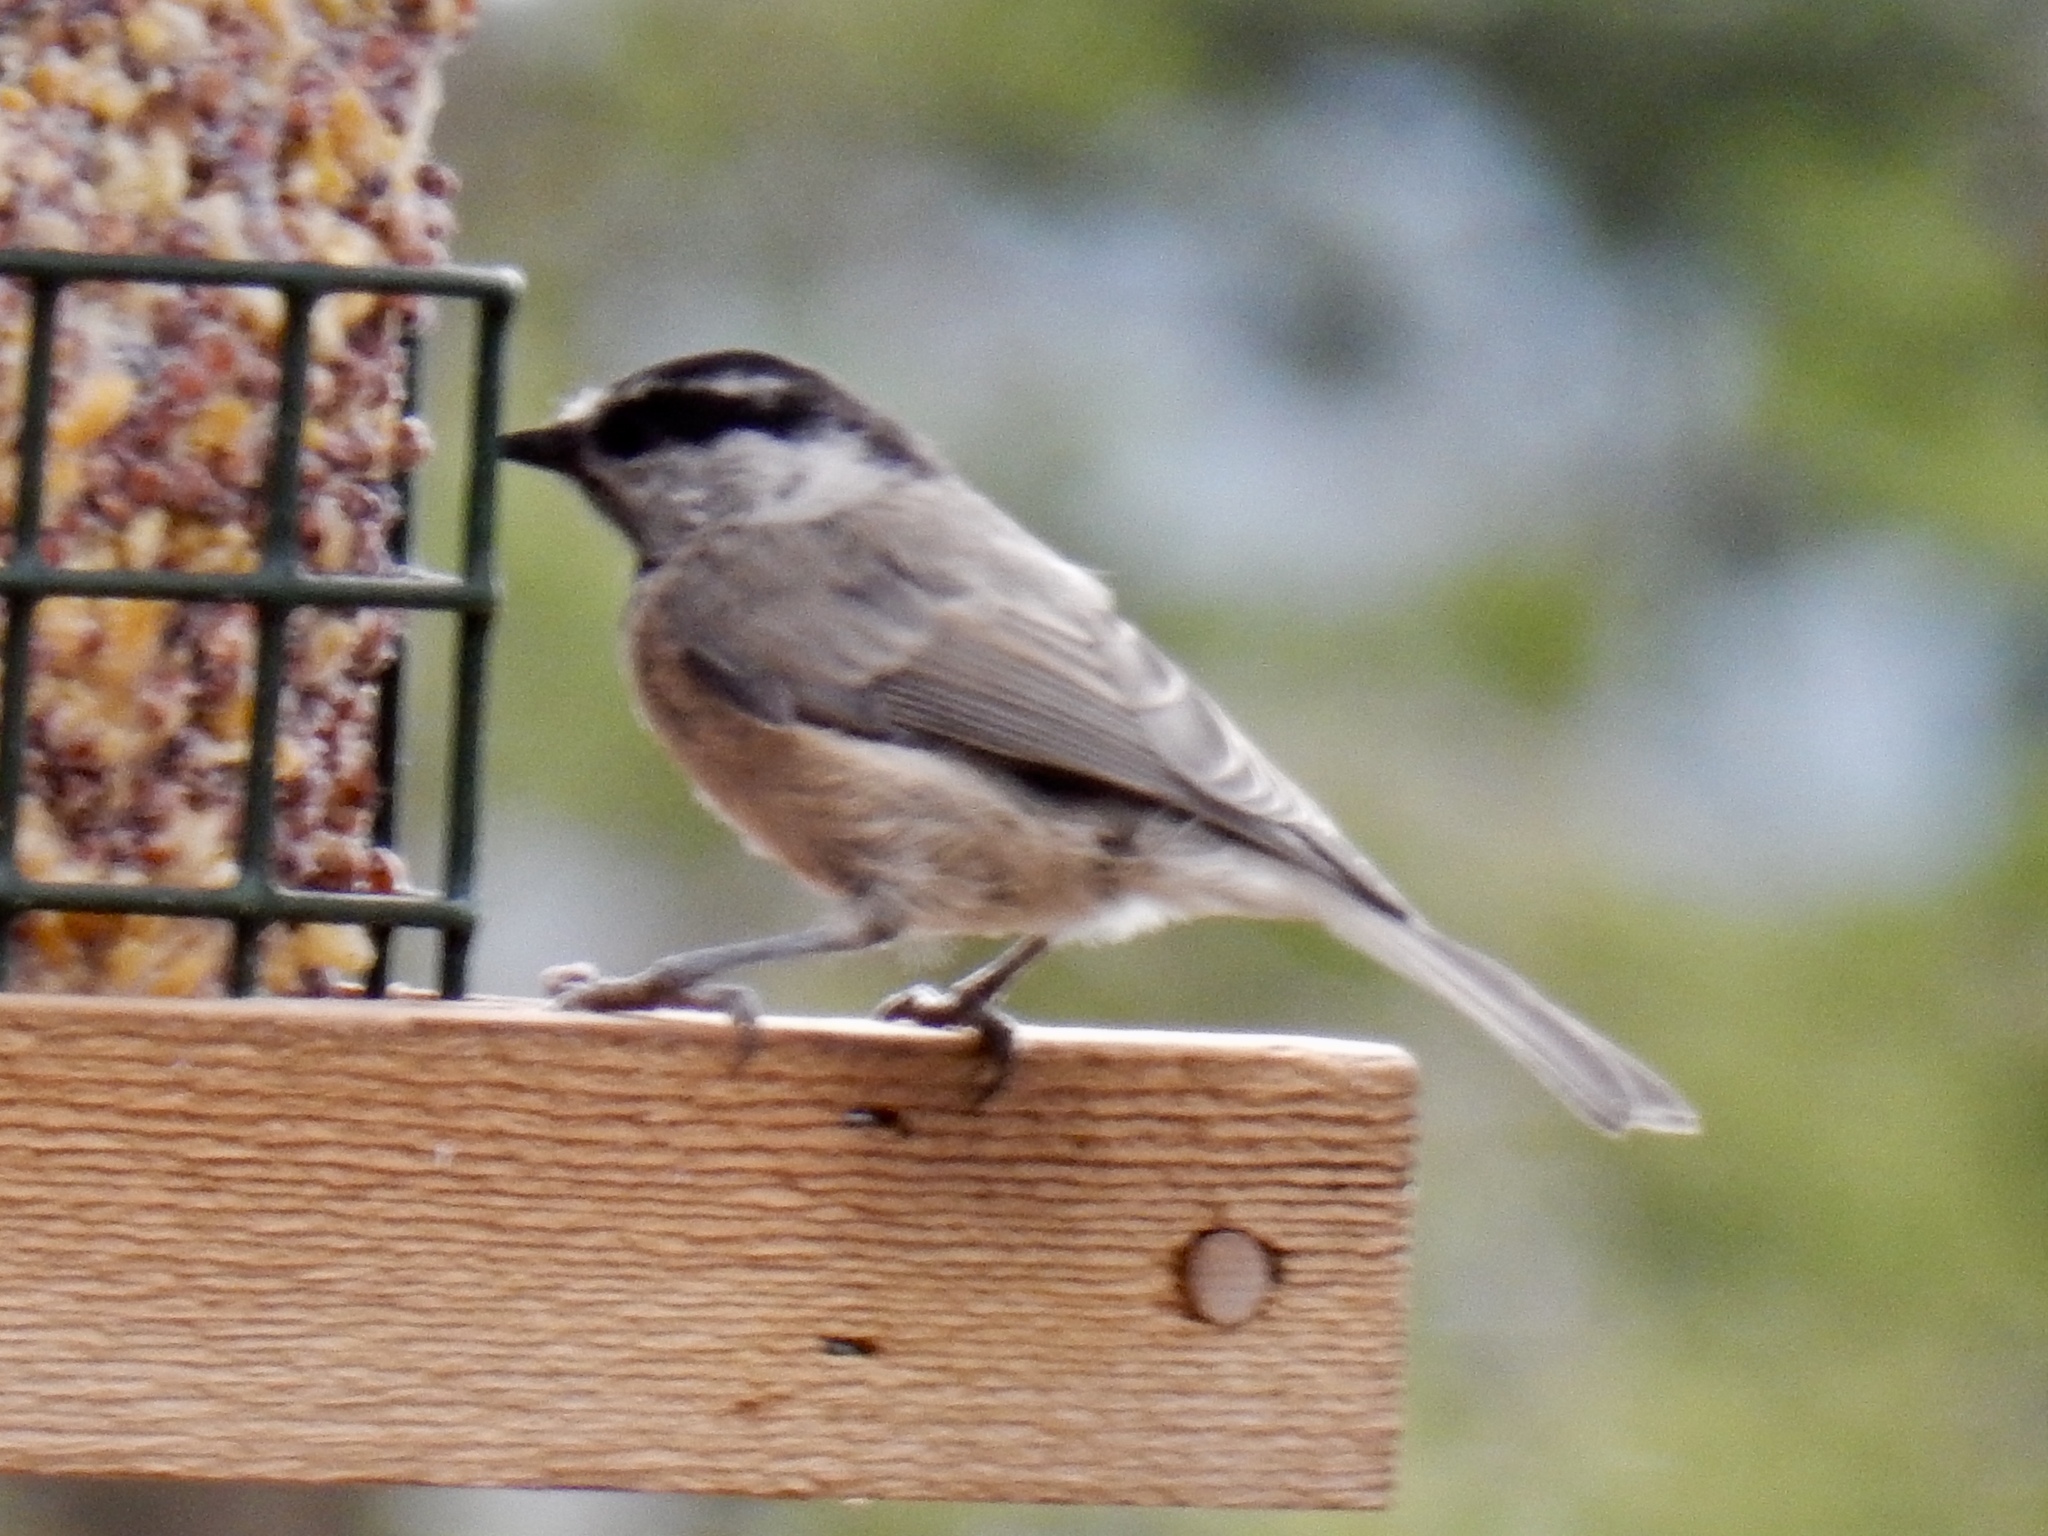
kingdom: Animalia
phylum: Chordata
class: Aves
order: Passeriformes
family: Paridae
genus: Poecile
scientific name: Poecile gambeli
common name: Mountain chickadee
